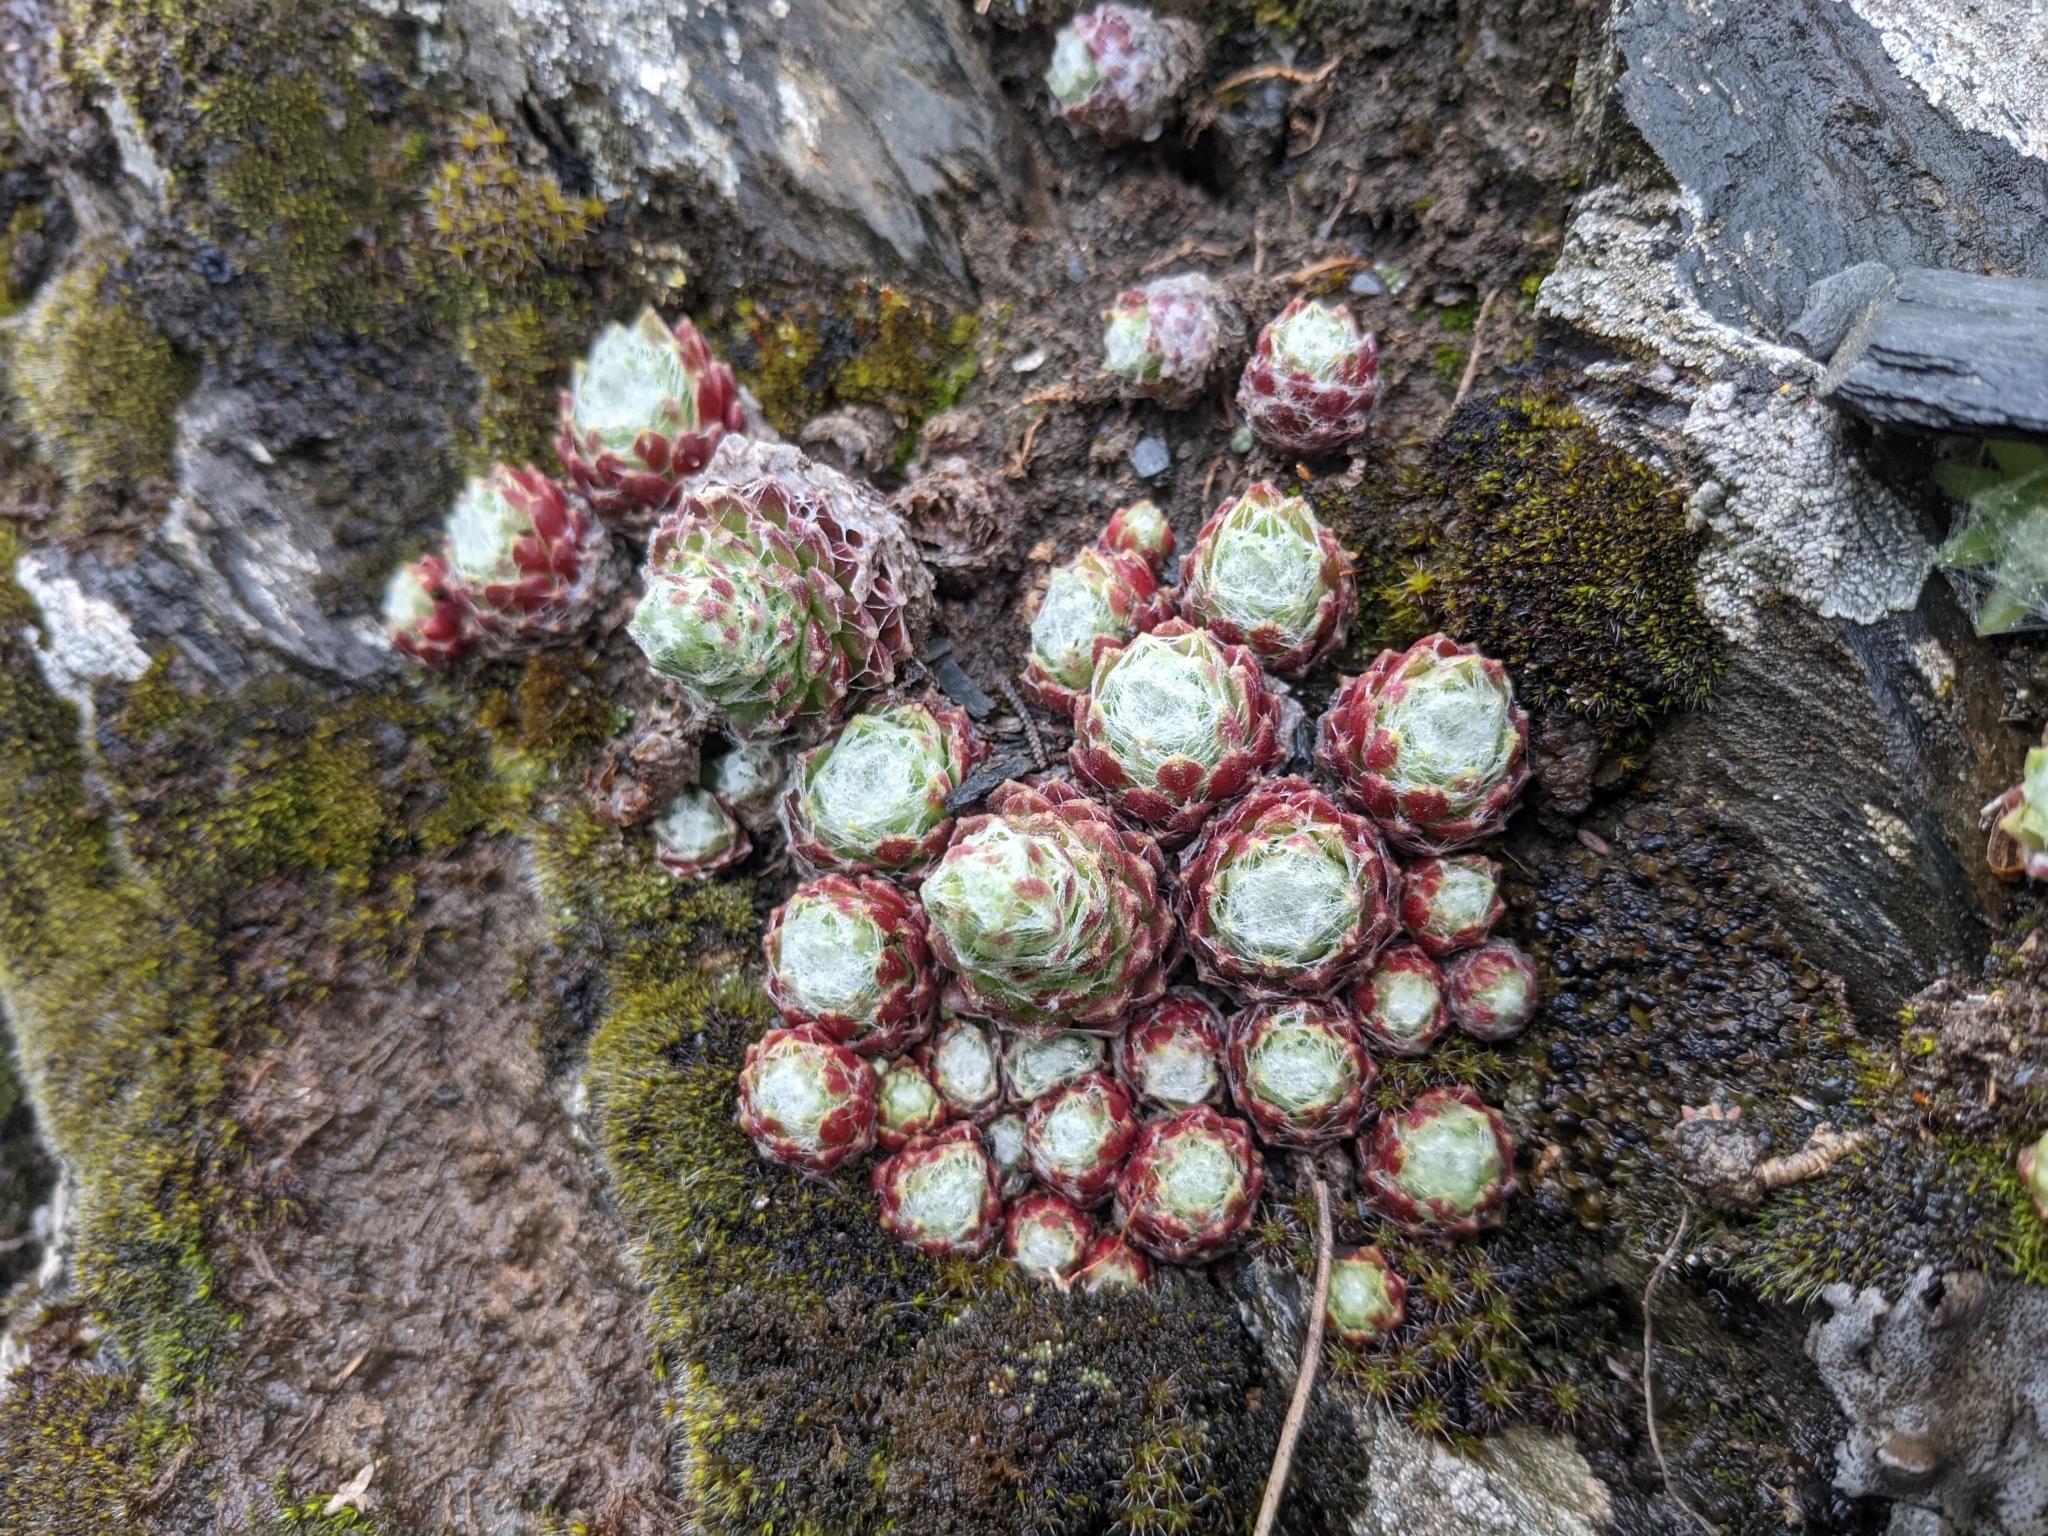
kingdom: Plantae
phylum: Tracheophyta
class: Magnoliopsida
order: Saxifragales
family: Crassulaceae
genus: Sempervivum
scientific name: Sempervivum arachnoideum
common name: Cobweb house-leek
